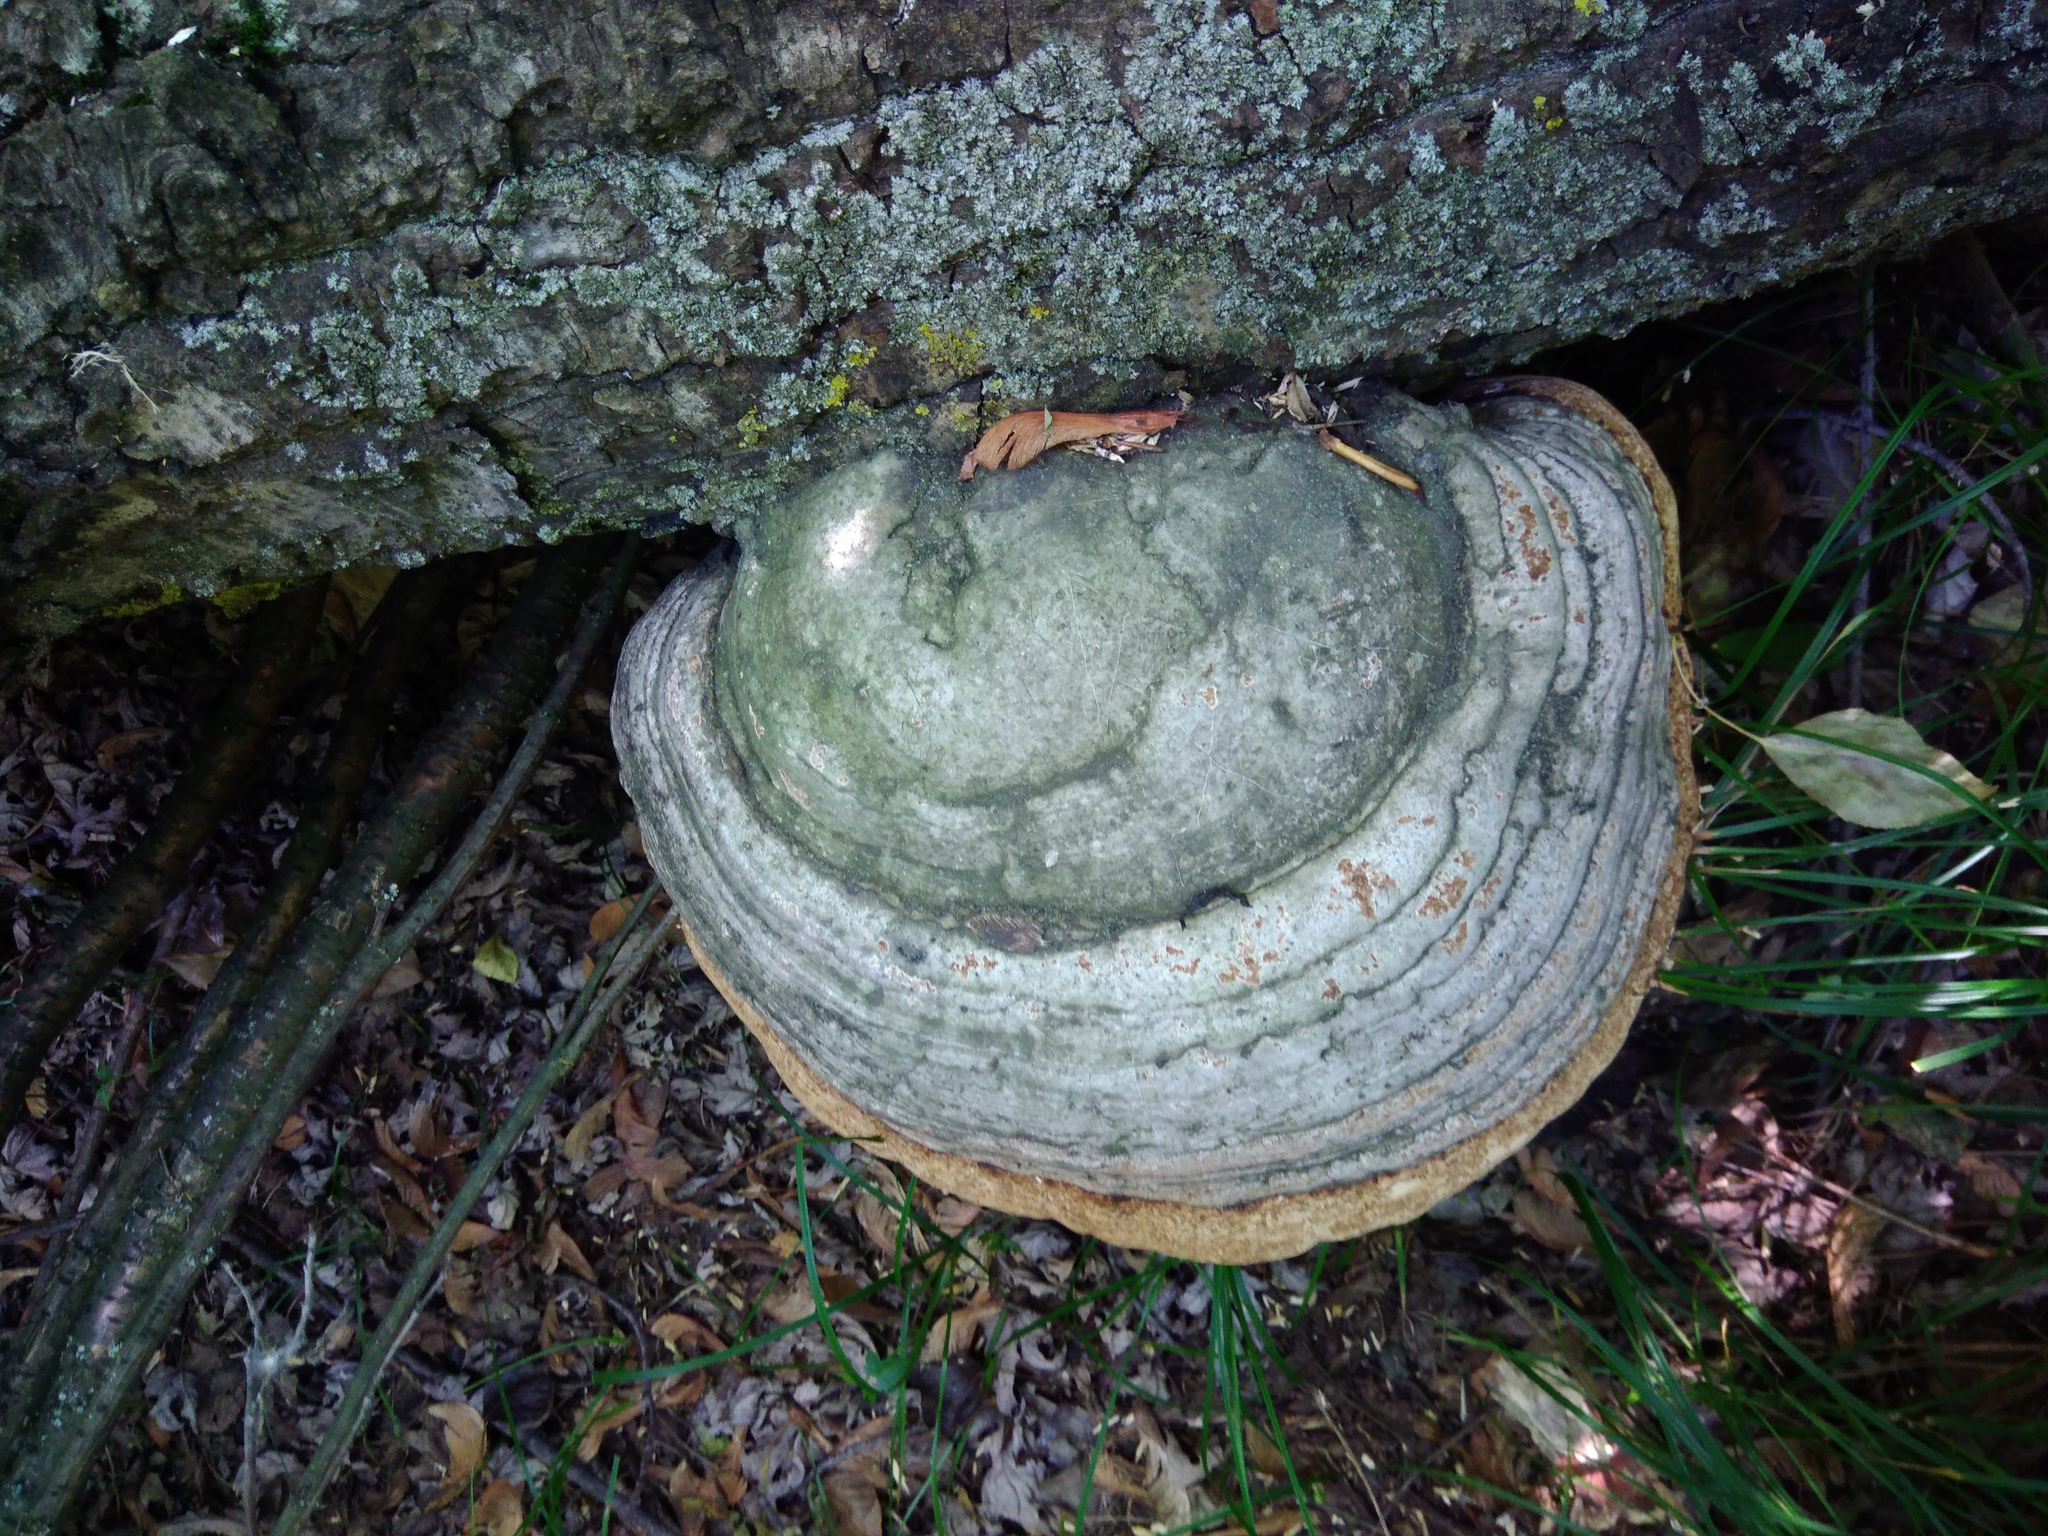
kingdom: Fungi
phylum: Basidiomycota
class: Agaricomycetes
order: Polyporales
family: Polyporaceae
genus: Fomes
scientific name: Fomes fomentarius
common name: Hoof fungus
